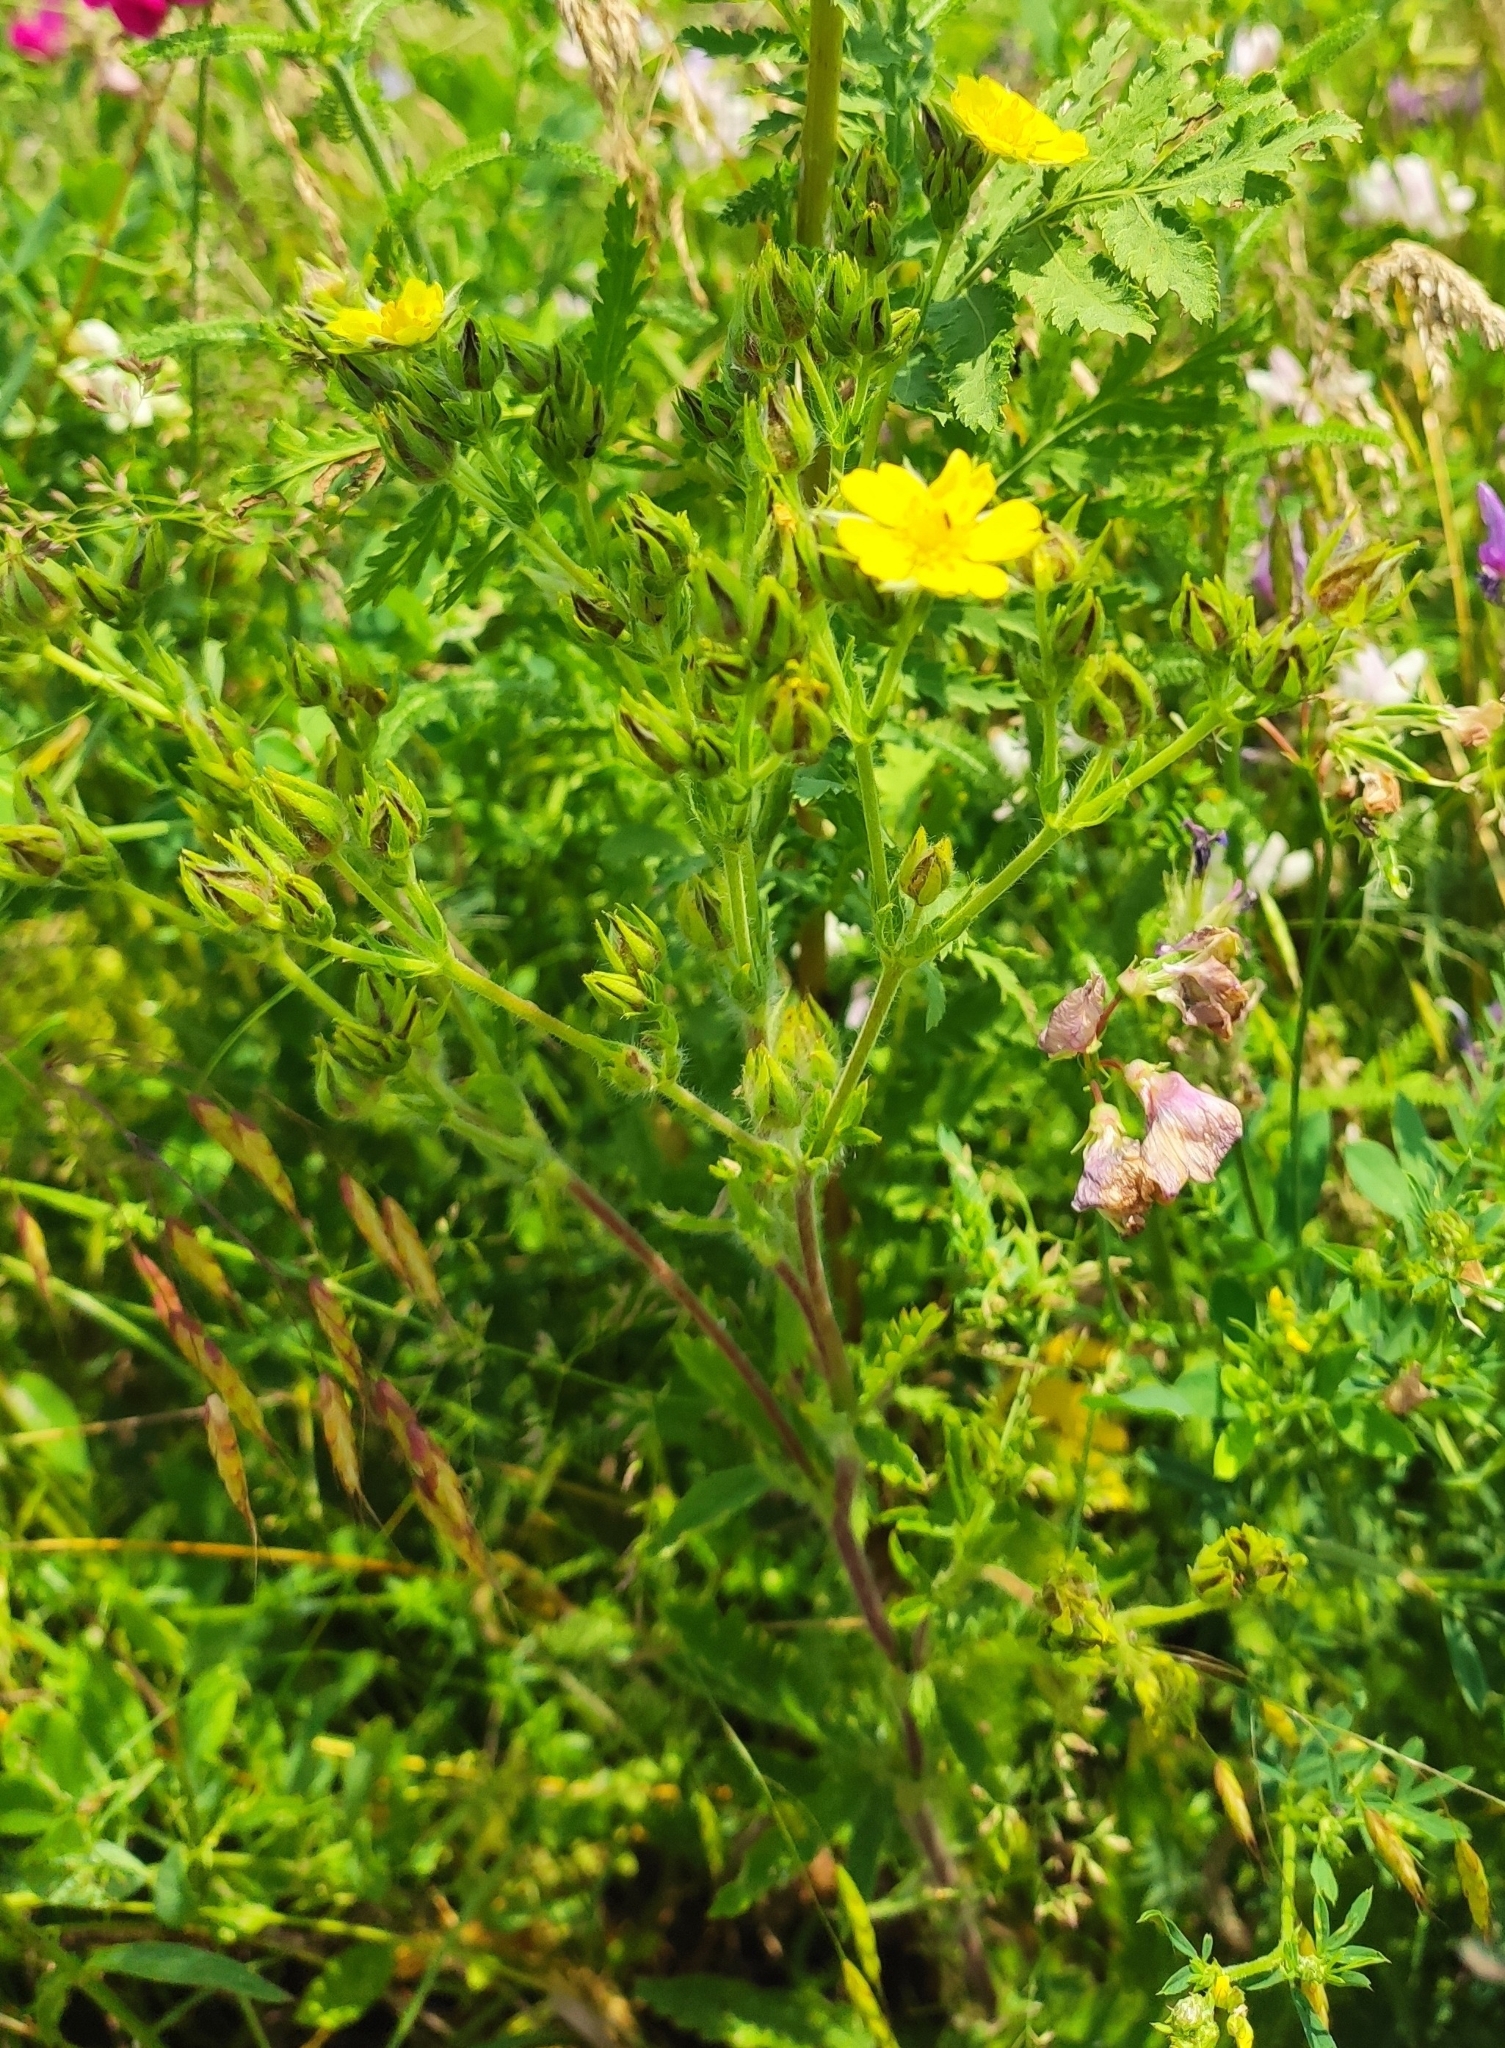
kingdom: Plantae
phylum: Tracheophyta
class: Magnoliopsida
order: Rosales
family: Rosaceae
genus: Potentilla
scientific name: Potentilla recta
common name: Sulphur cinquefoil
